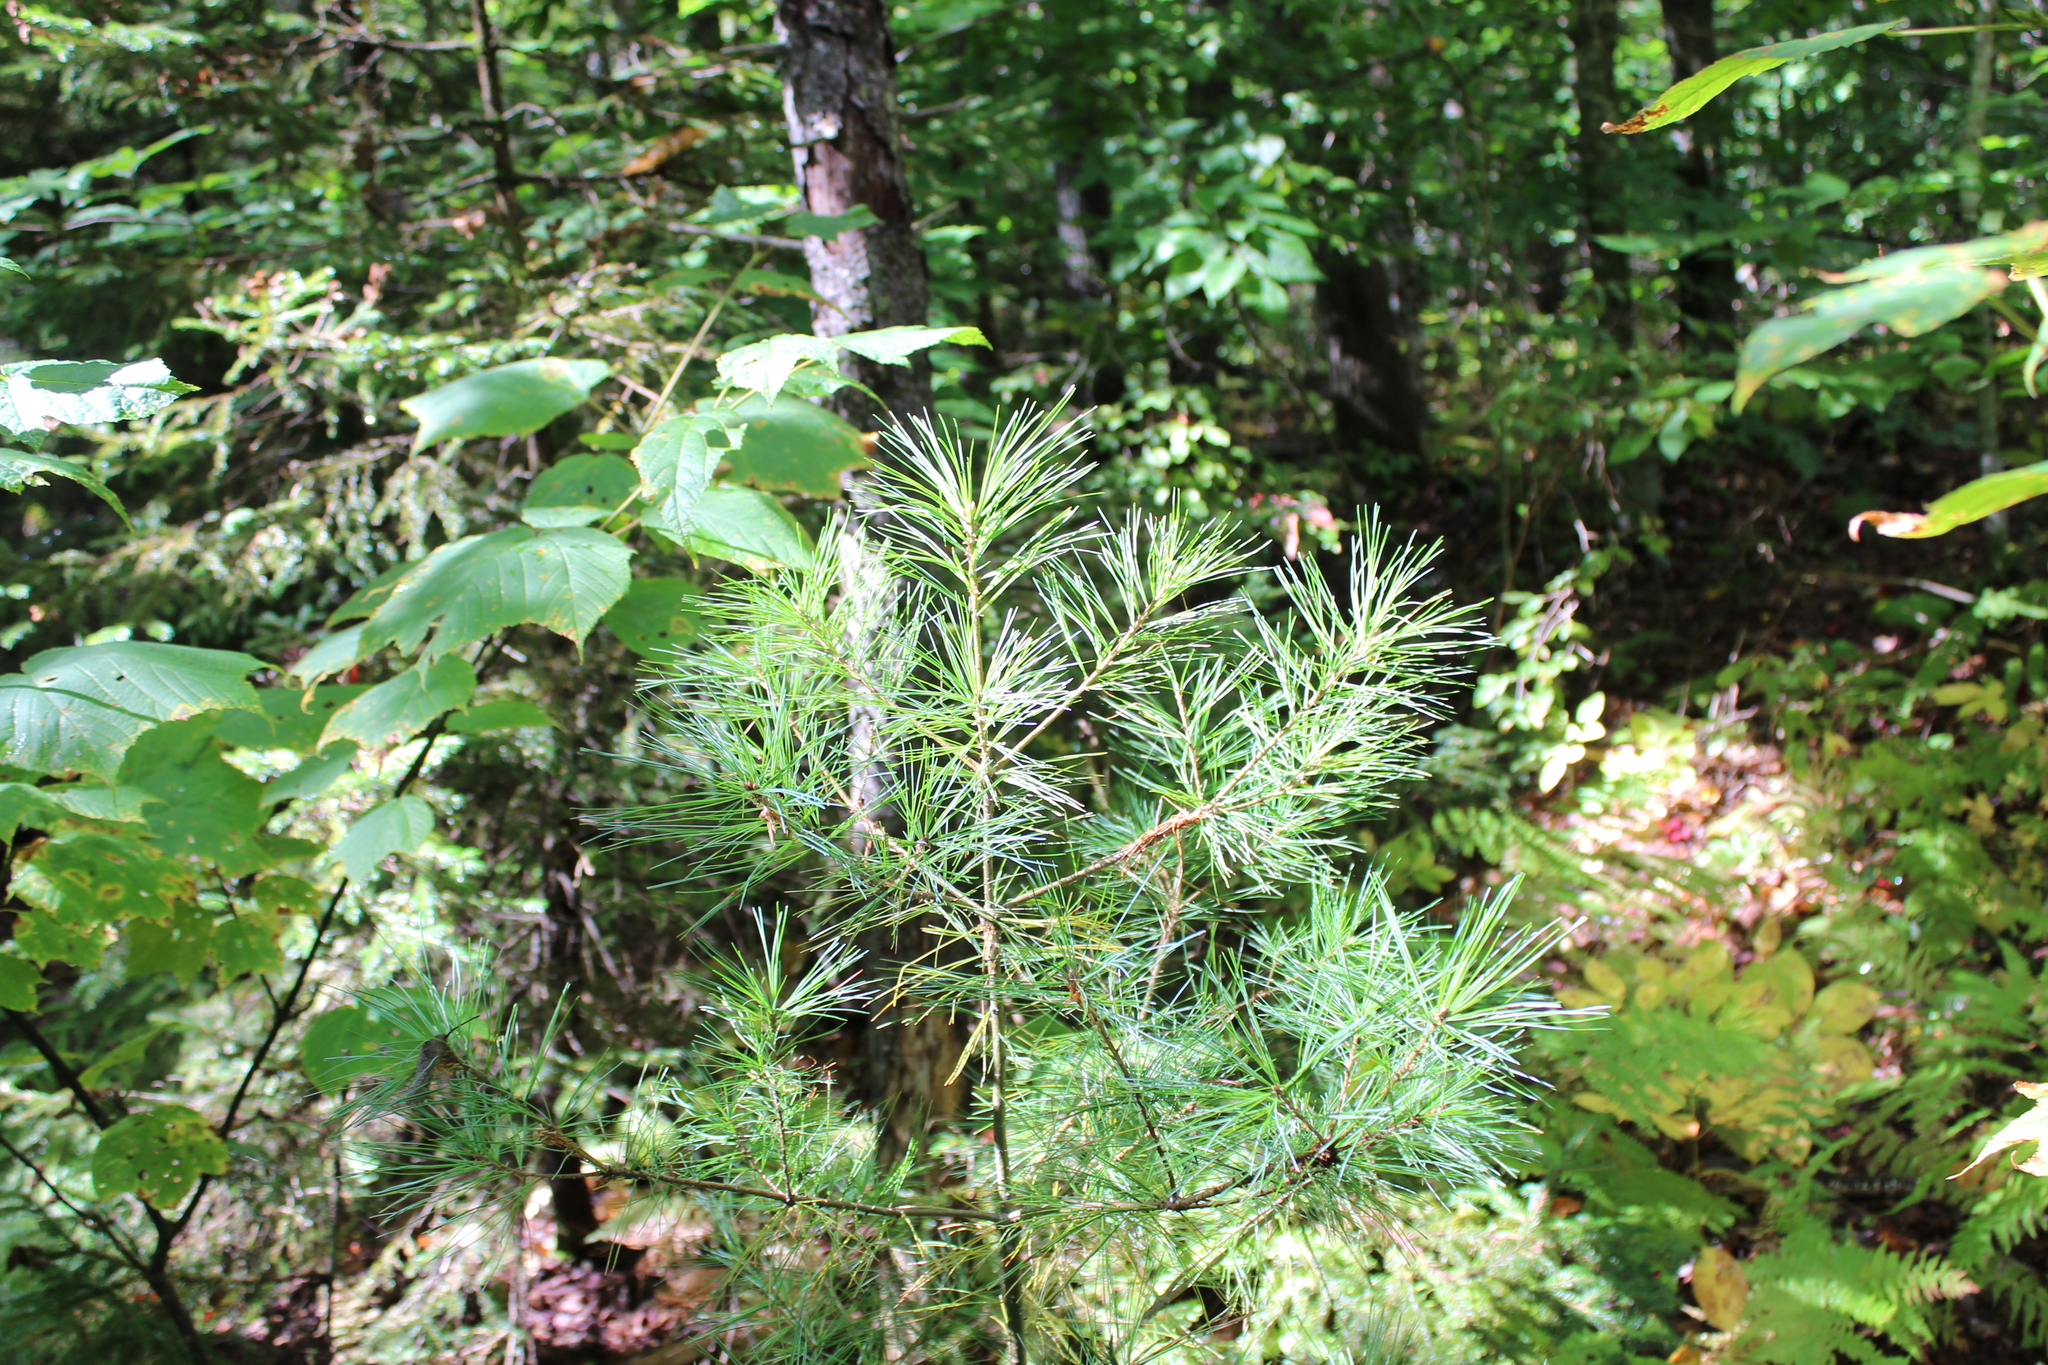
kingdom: Plantae
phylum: Tracheophyta
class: Pinopsida
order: Pinales
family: Pinaceae
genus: Pinus
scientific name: Pinus strobus
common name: Weymouth pine
